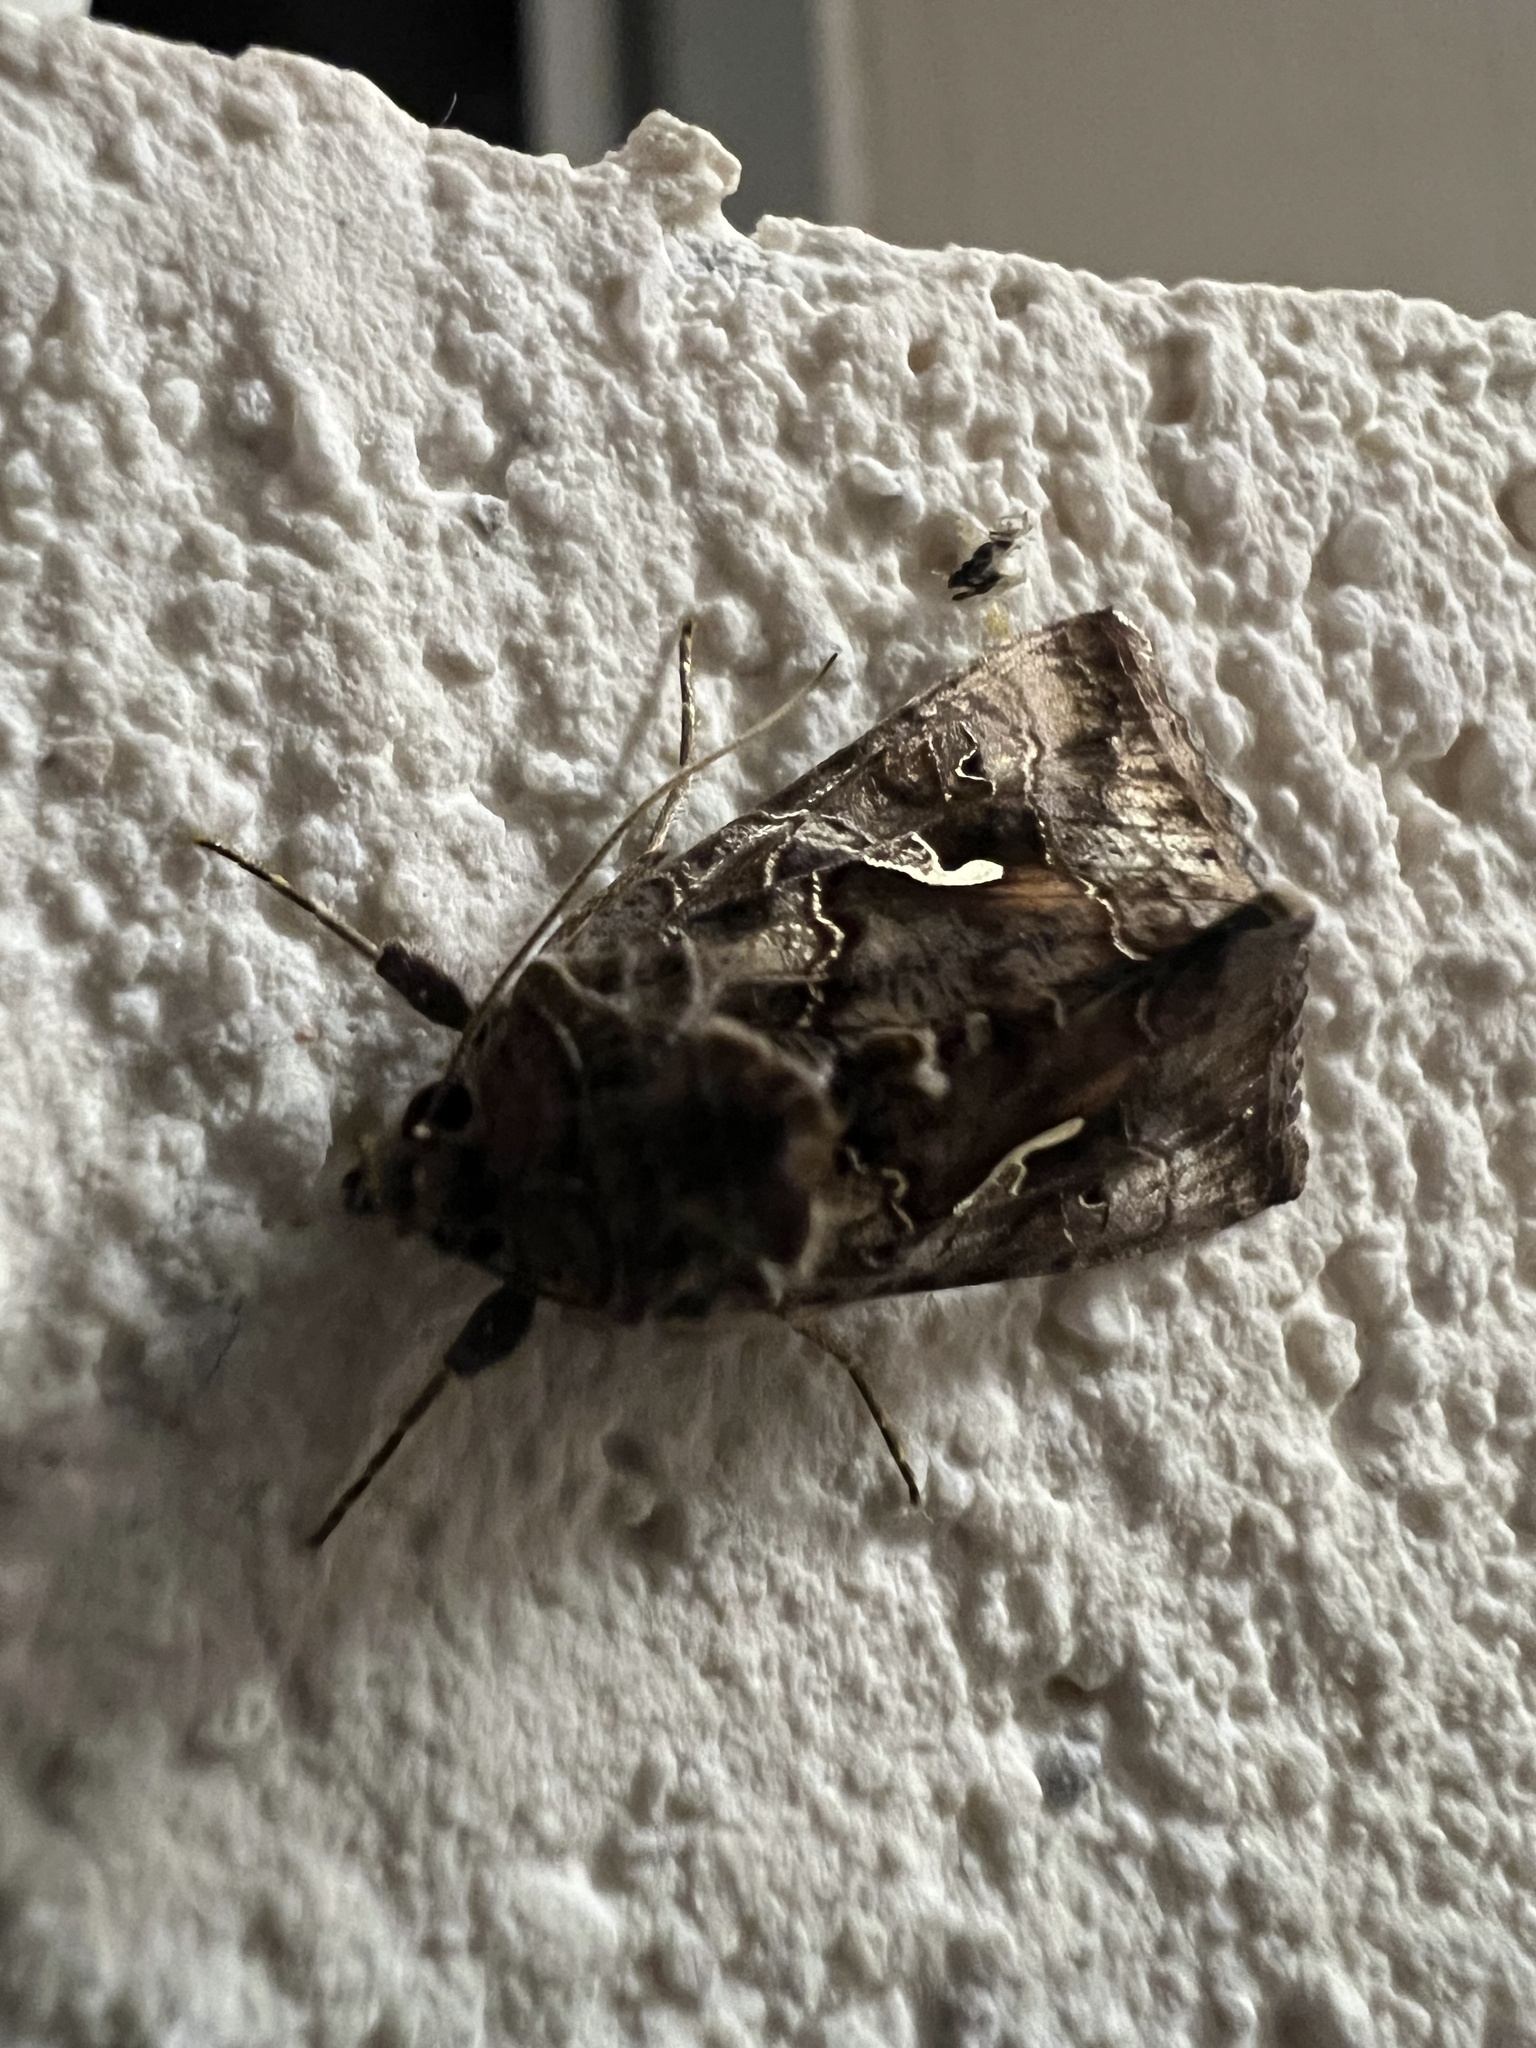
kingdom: Animalia
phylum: Arthropoda
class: Insecta
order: Lepidoptera
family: Noctuidae
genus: Autographa
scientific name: Autographa gamma
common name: Silver y
